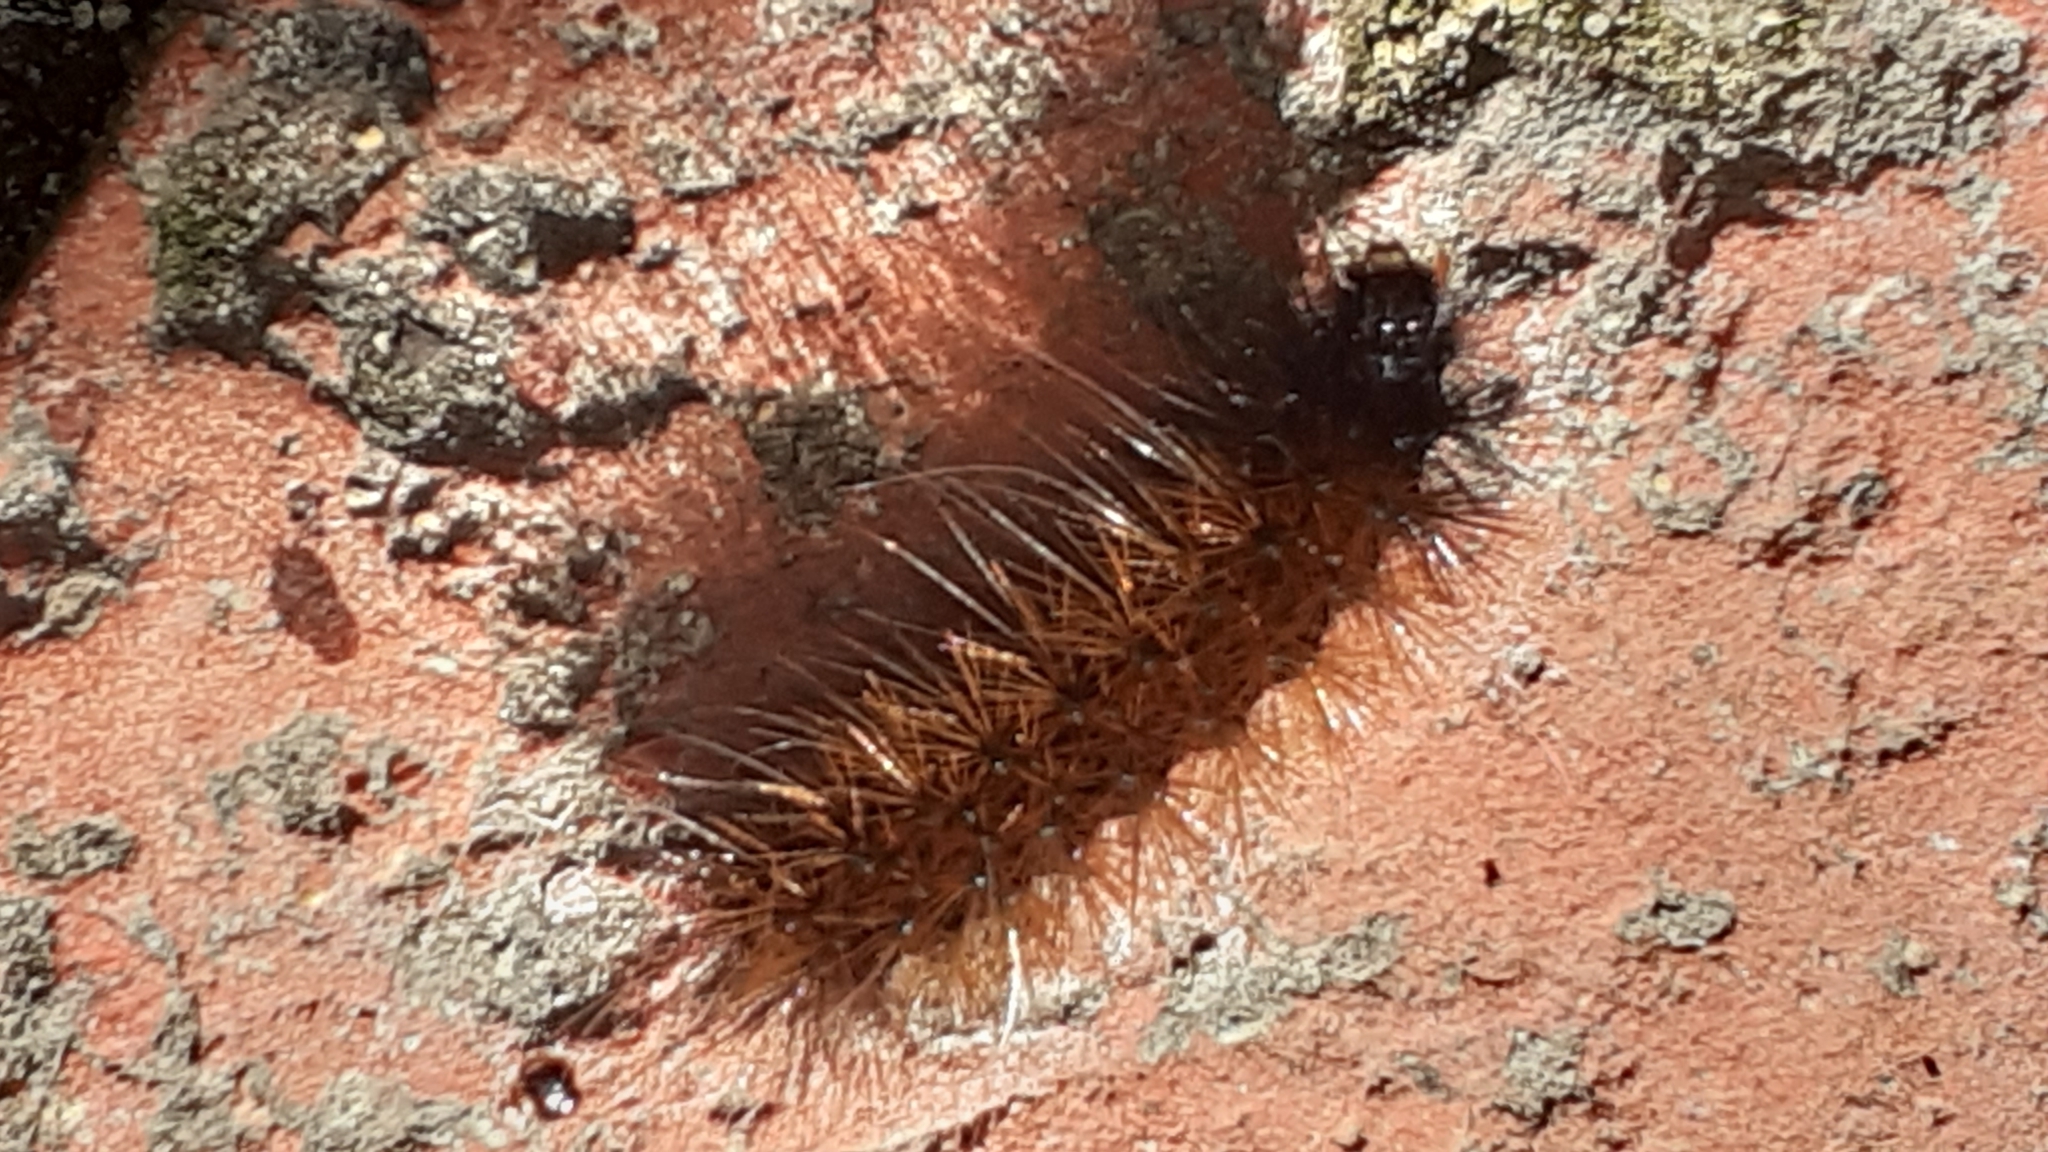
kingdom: Animalia
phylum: Arthropoda
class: Insecta
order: Lepidoptera
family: Erebidae
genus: Rhodogastria
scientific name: Rhodogastria amasis
